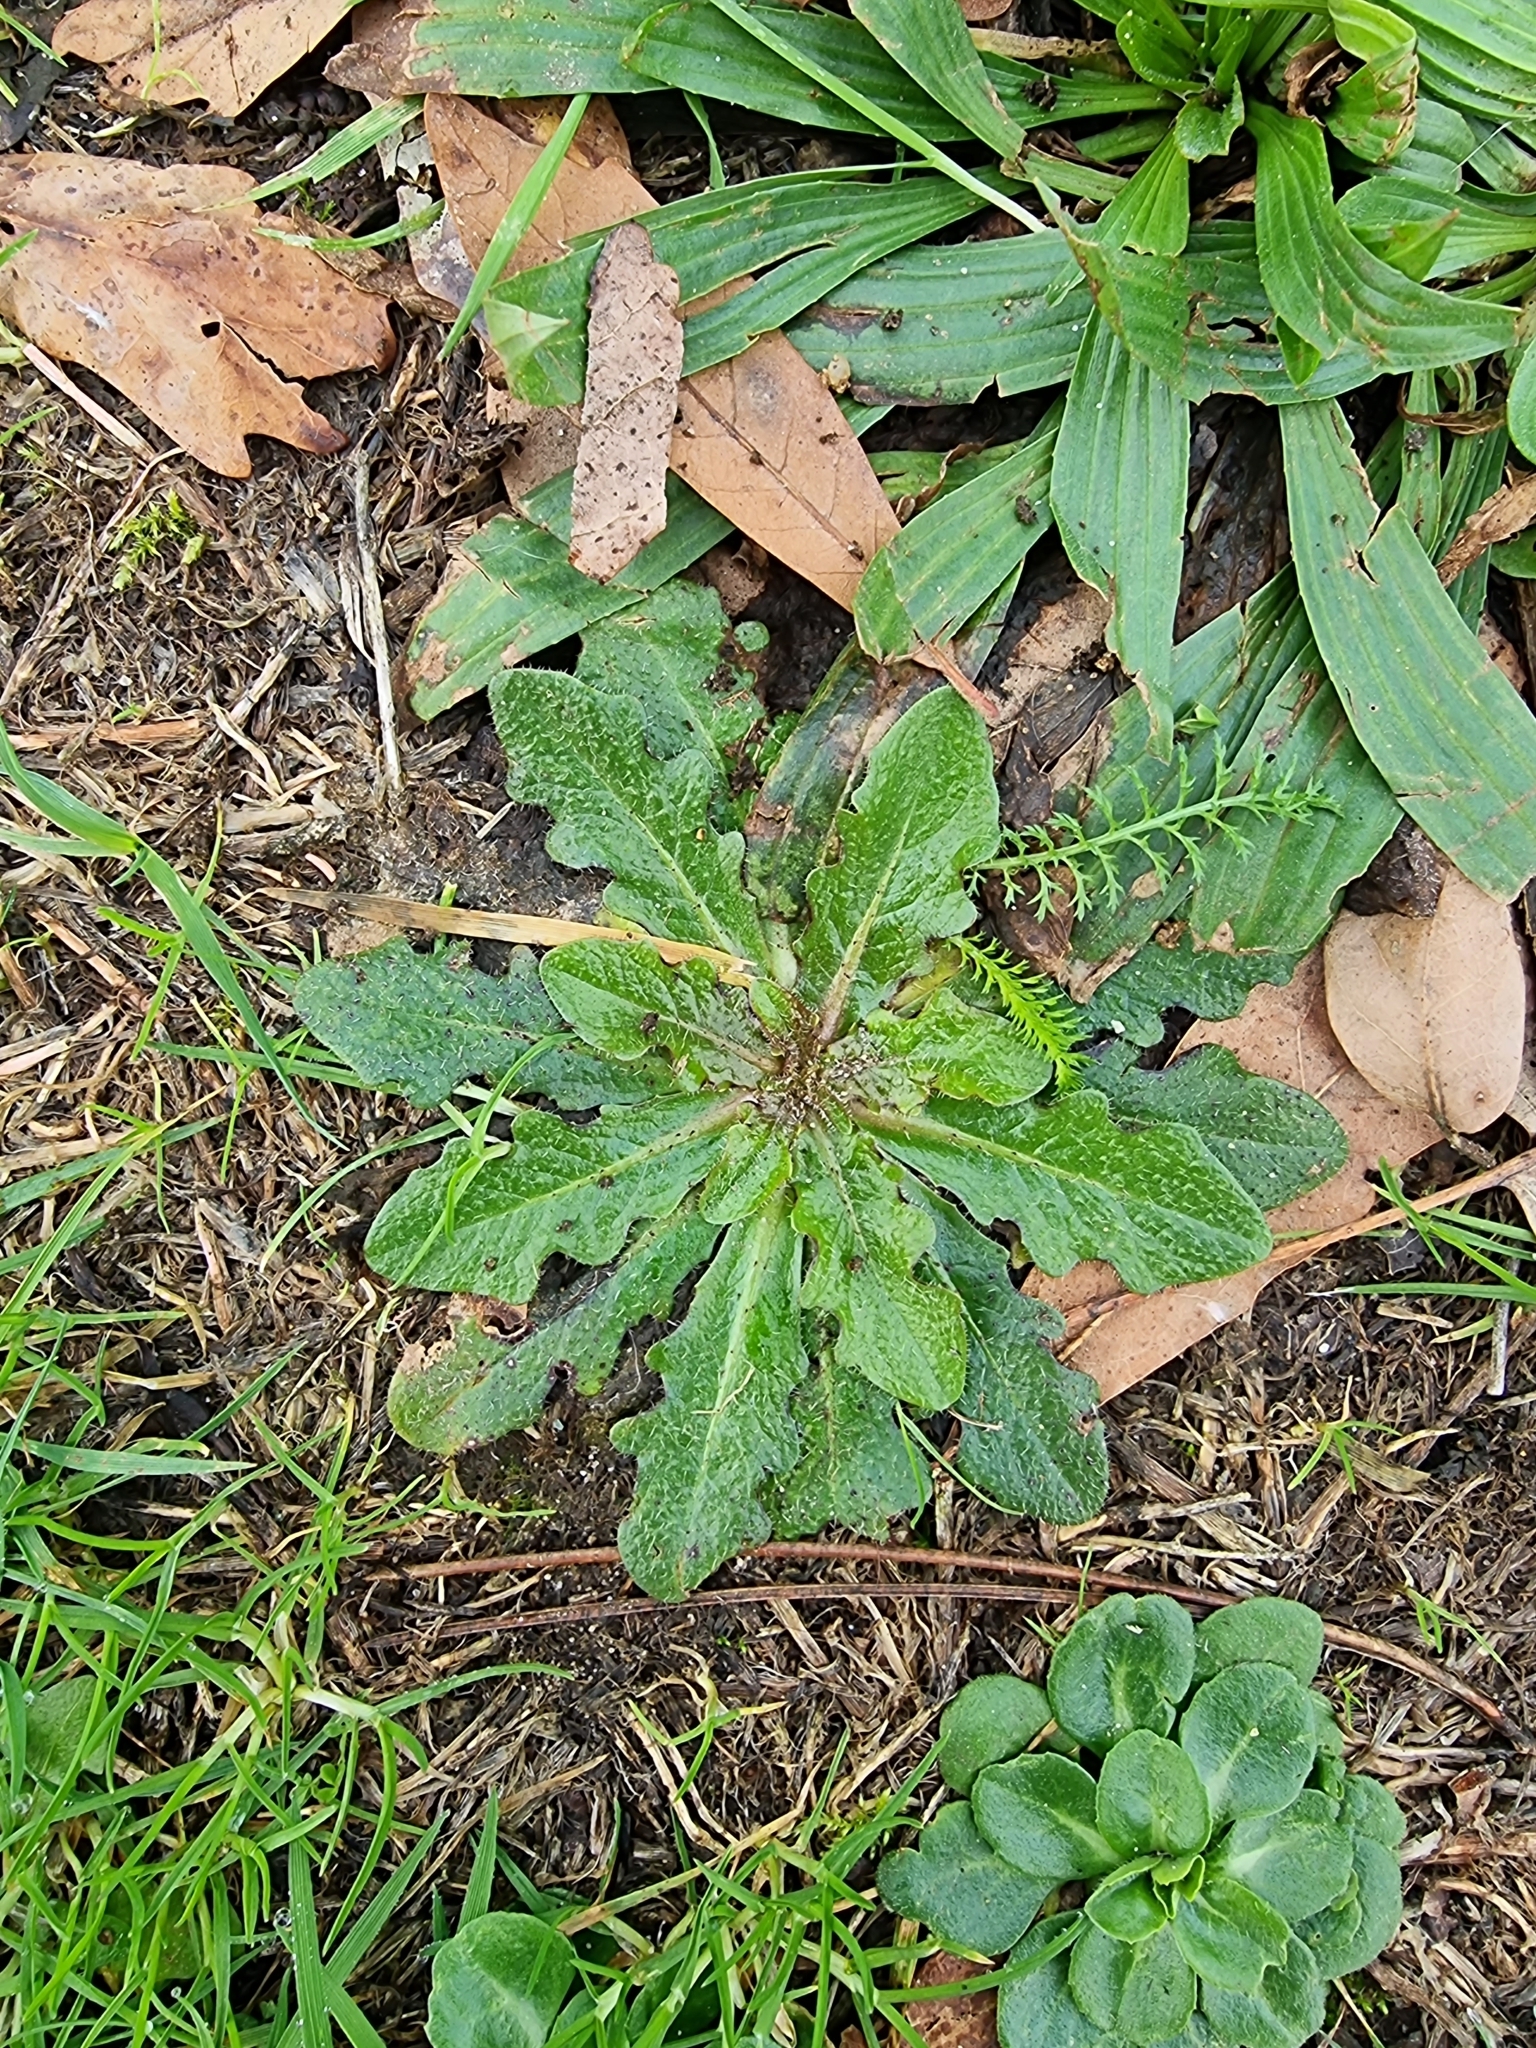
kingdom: Plantae
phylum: Tracheophyta
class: Magnoliopsida
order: Asterales
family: Asteraceae
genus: Hypochaeris
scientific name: Hypochaeris radicata
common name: Flatweed
